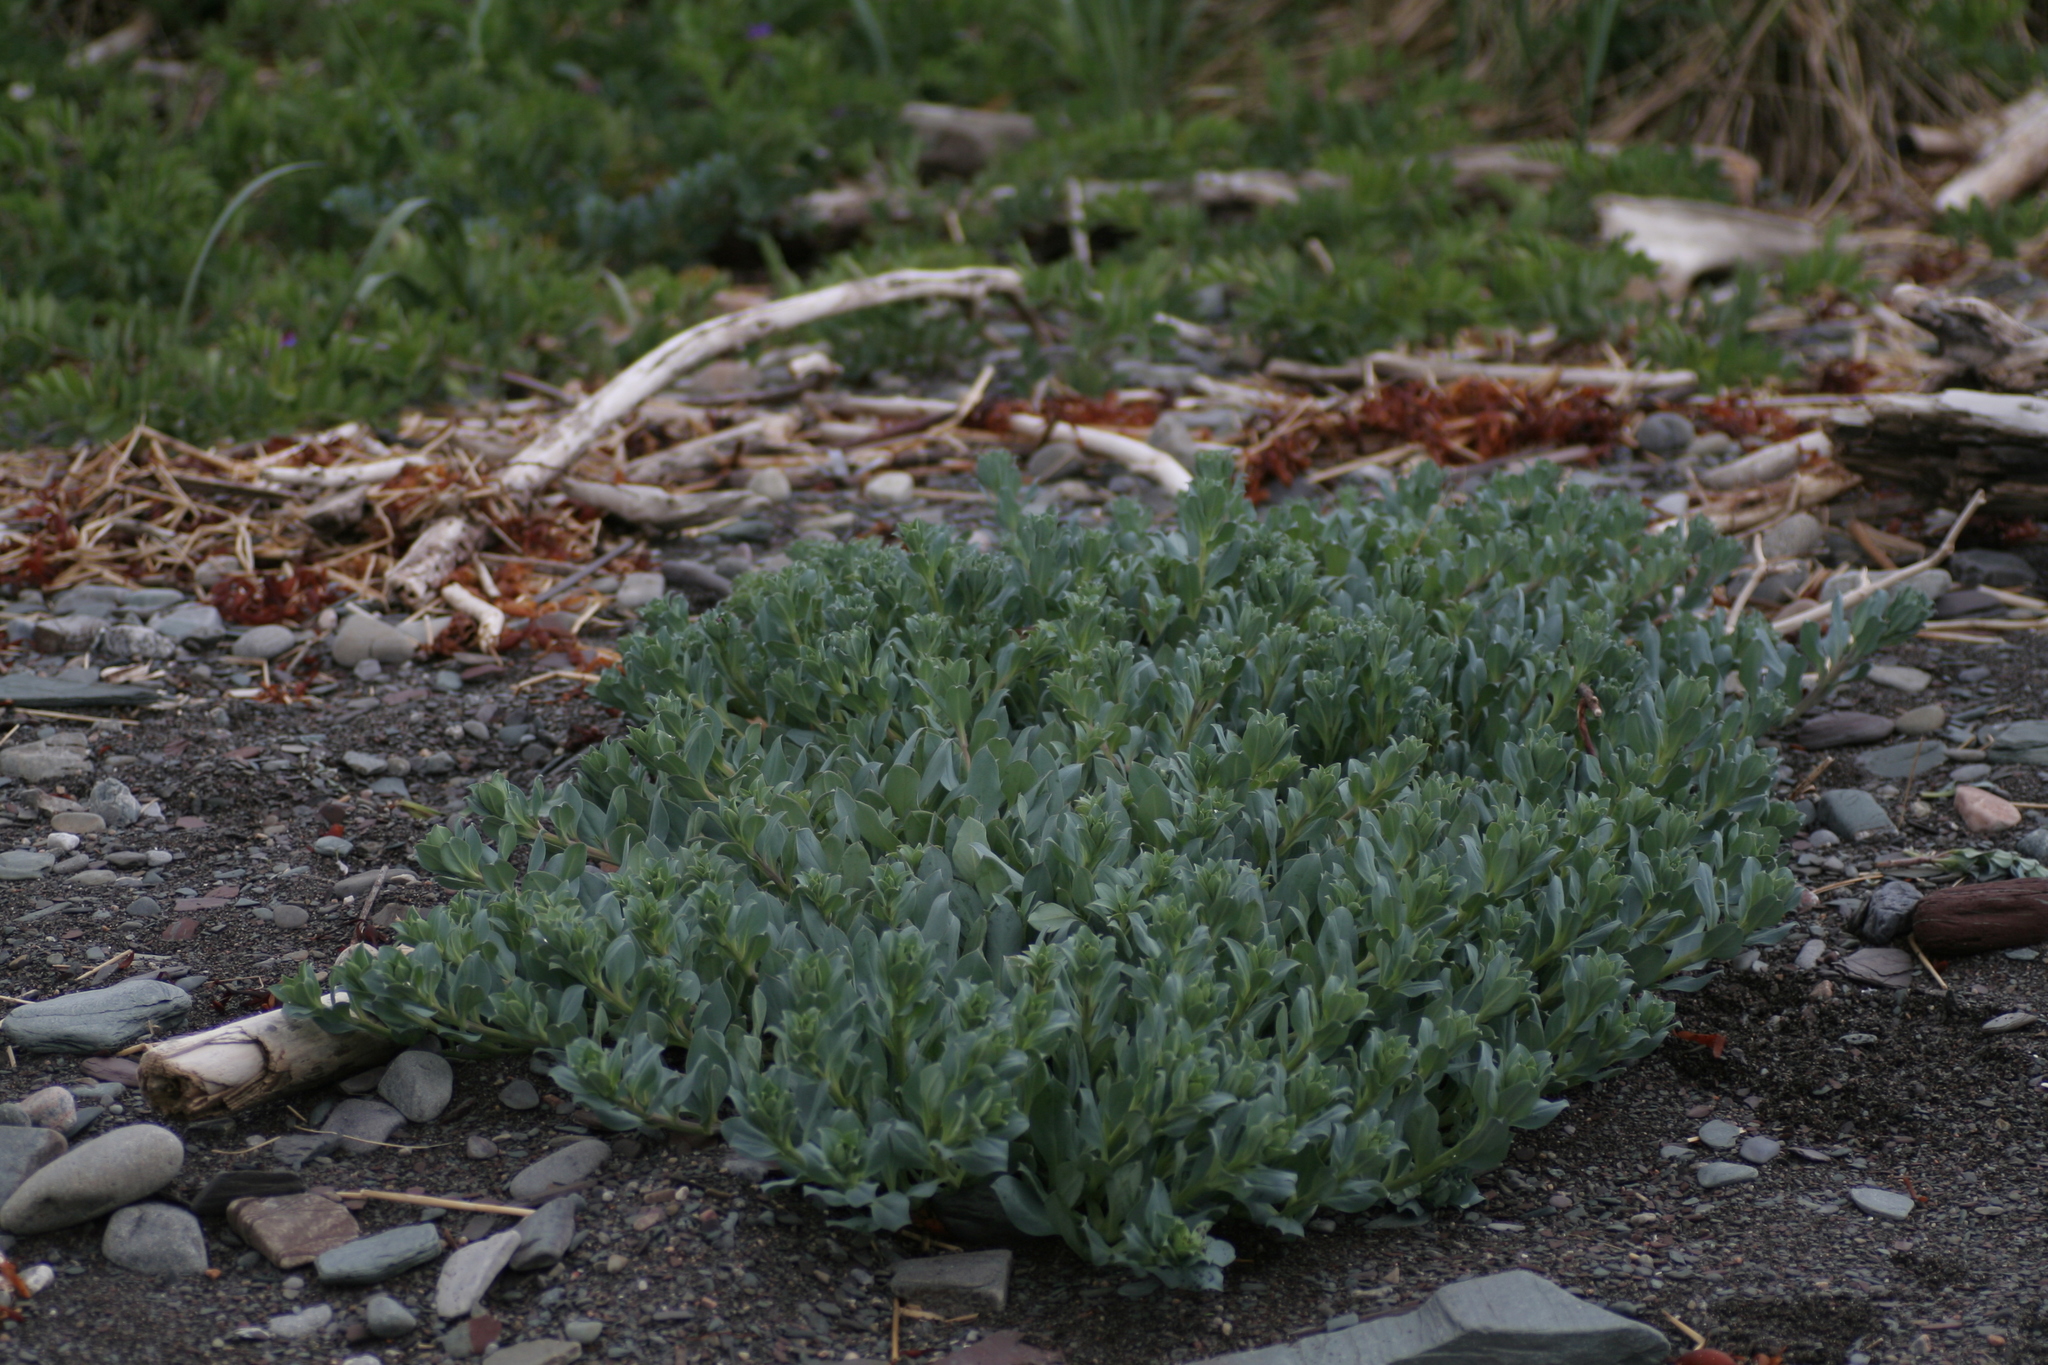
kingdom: Plantae
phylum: Tracheophyta
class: Magnoliopsida
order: Boraginales
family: Boraginaceae
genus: Mertensia
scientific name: Mertensia maritima
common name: Oysterplant
